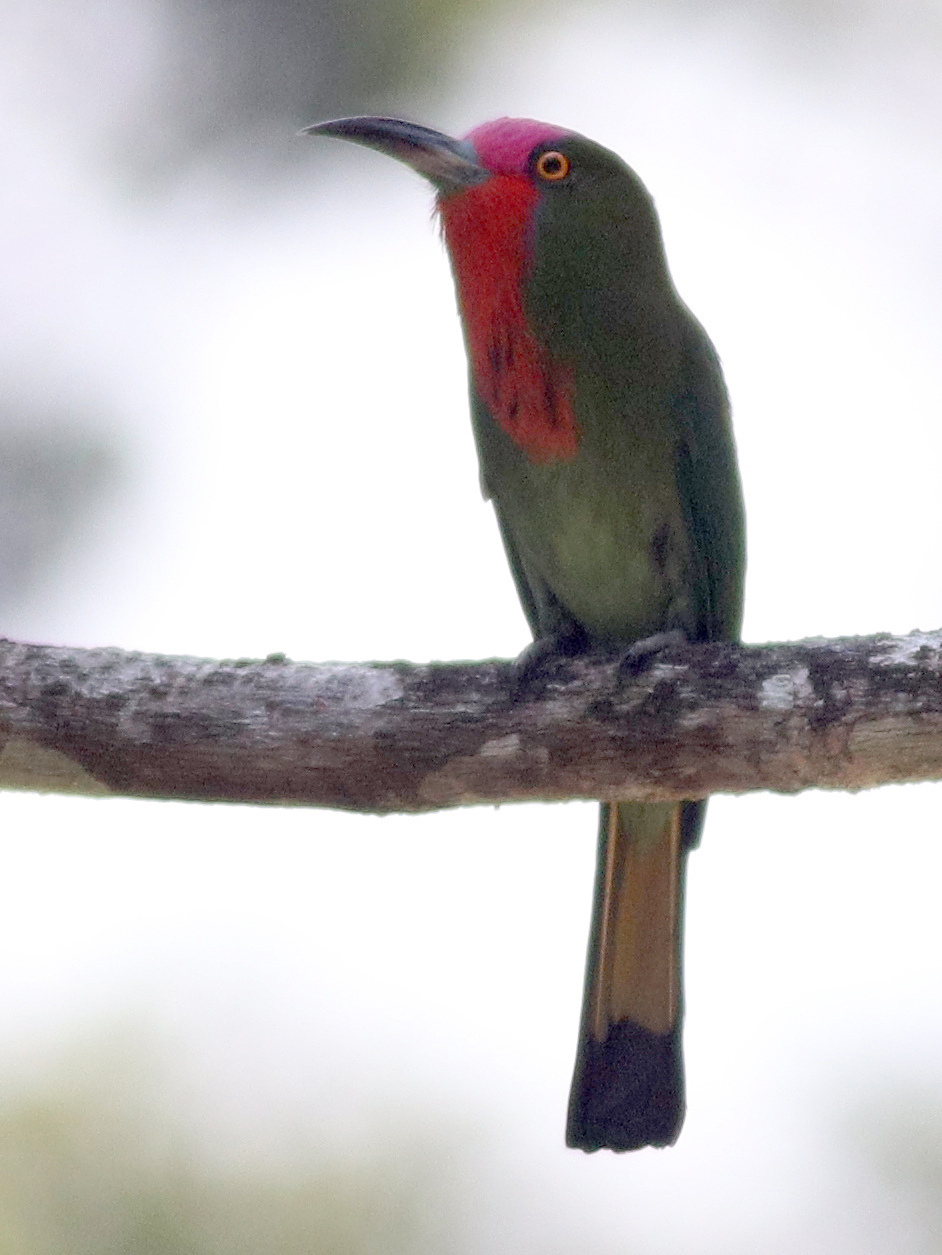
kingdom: Animalia
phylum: Chordata
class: Aves
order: Coraciiformes
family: Meropidae
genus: Nyctyornis
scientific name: Nyctyornis amictus
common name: Red-bearded bee-eater
